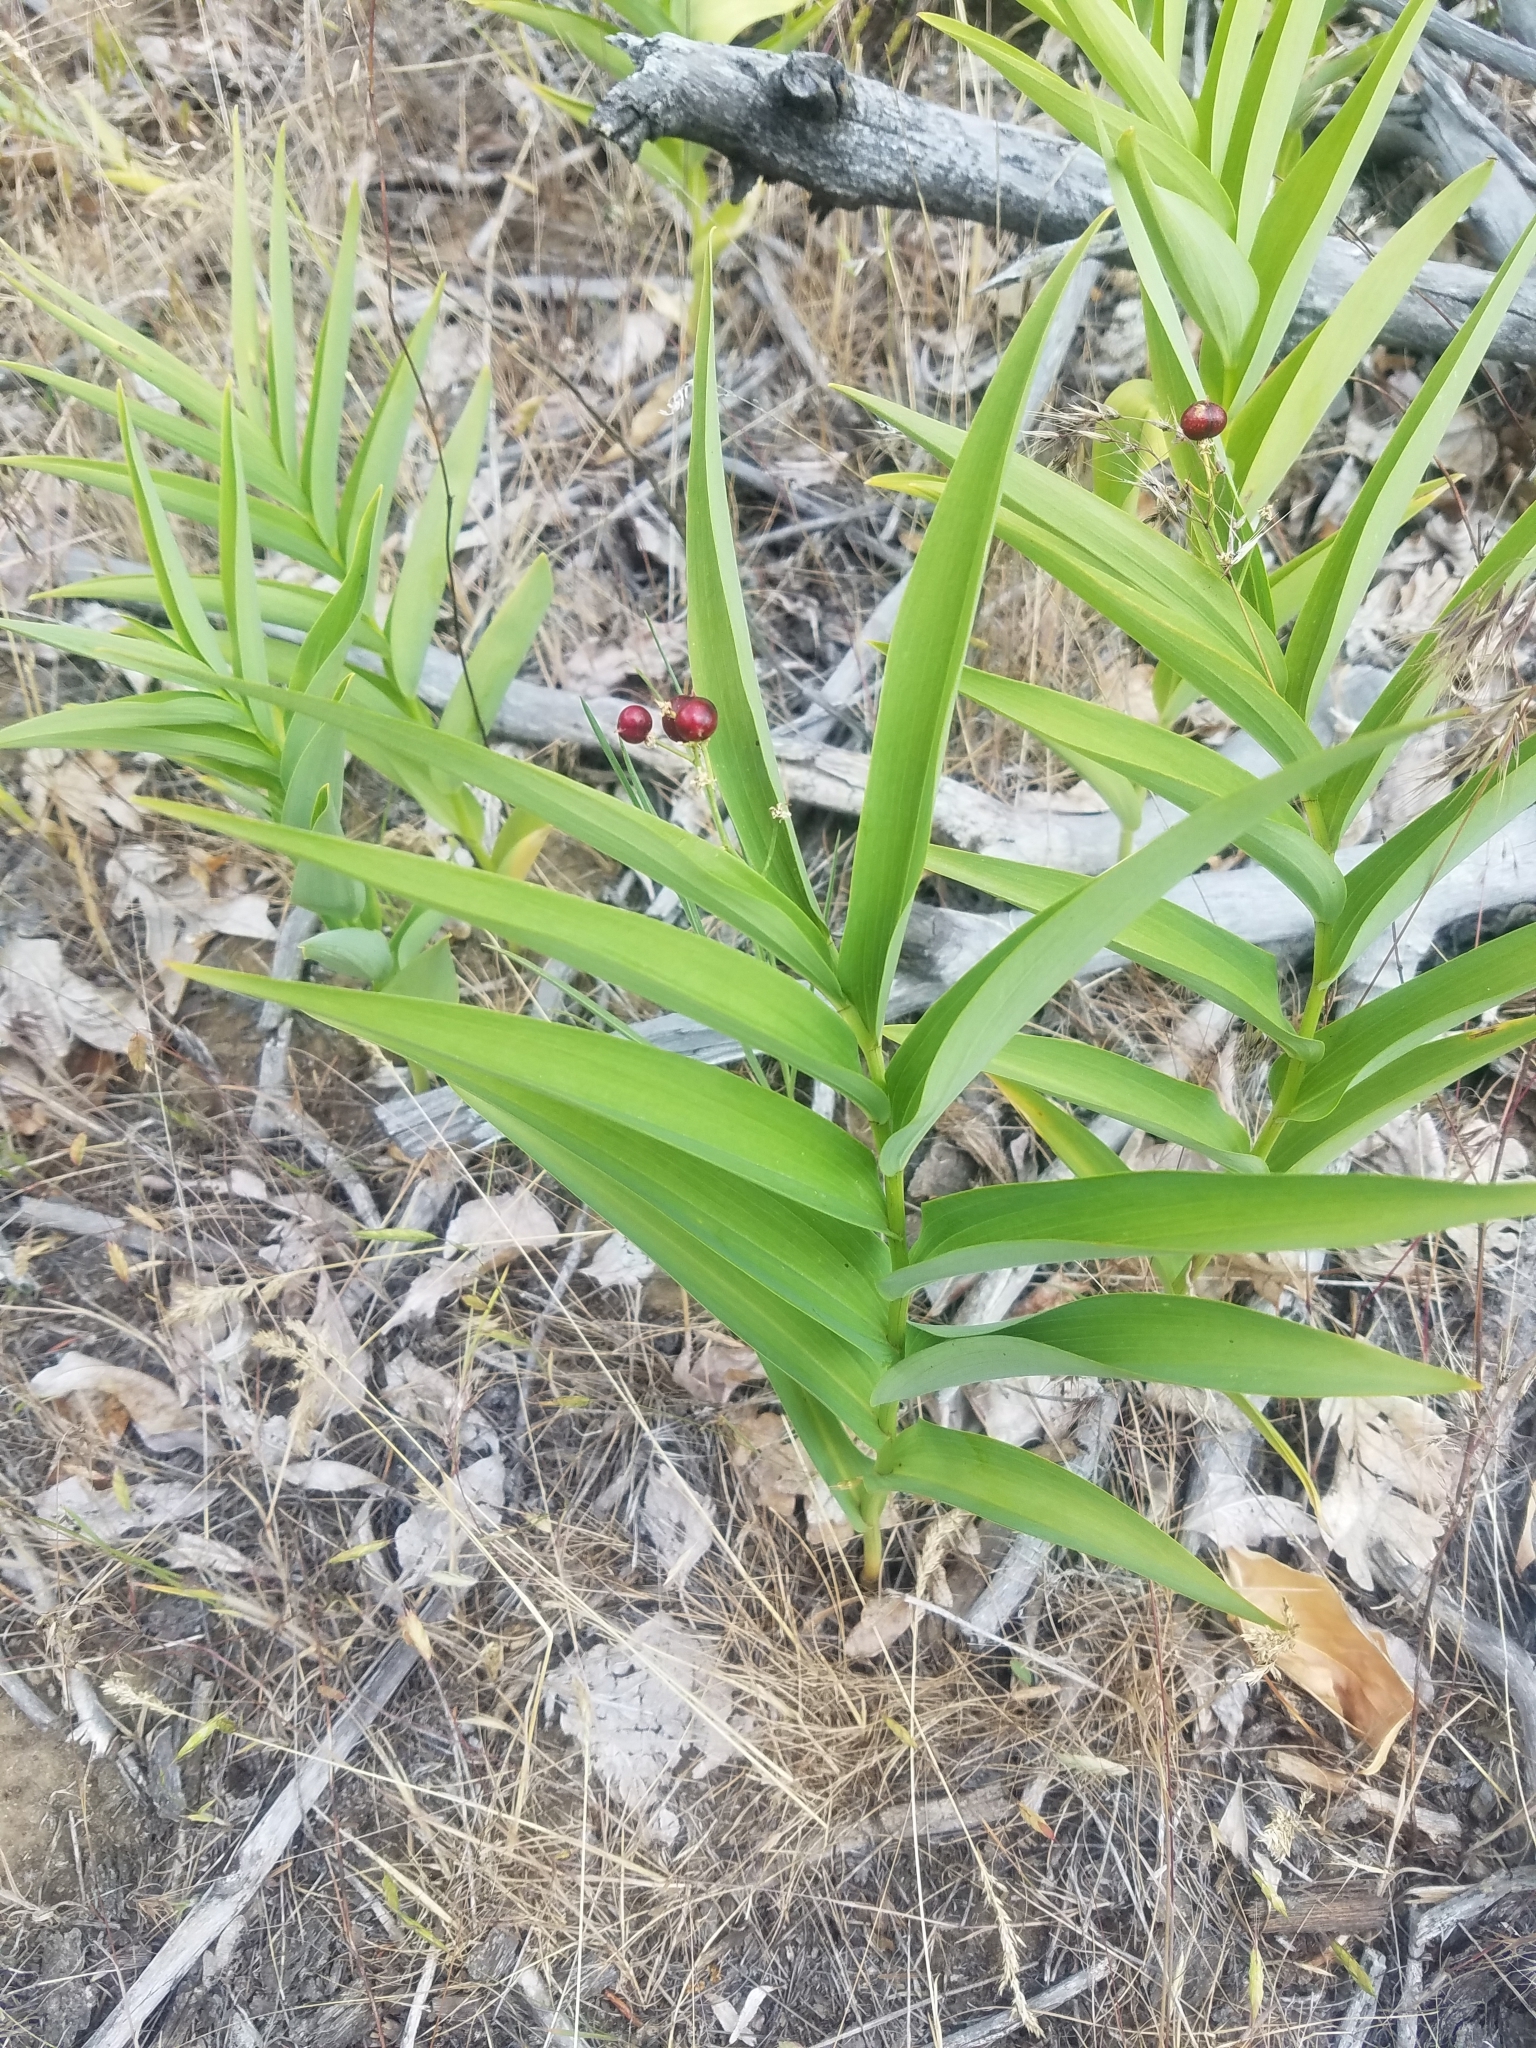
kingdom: Plantae
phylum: Tracheophyta
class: Liliopsida
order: Asparagales
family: Asparagaceae
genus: Maianthemum
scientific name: Maianthemum stellatum
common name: Little false solomon's seal
